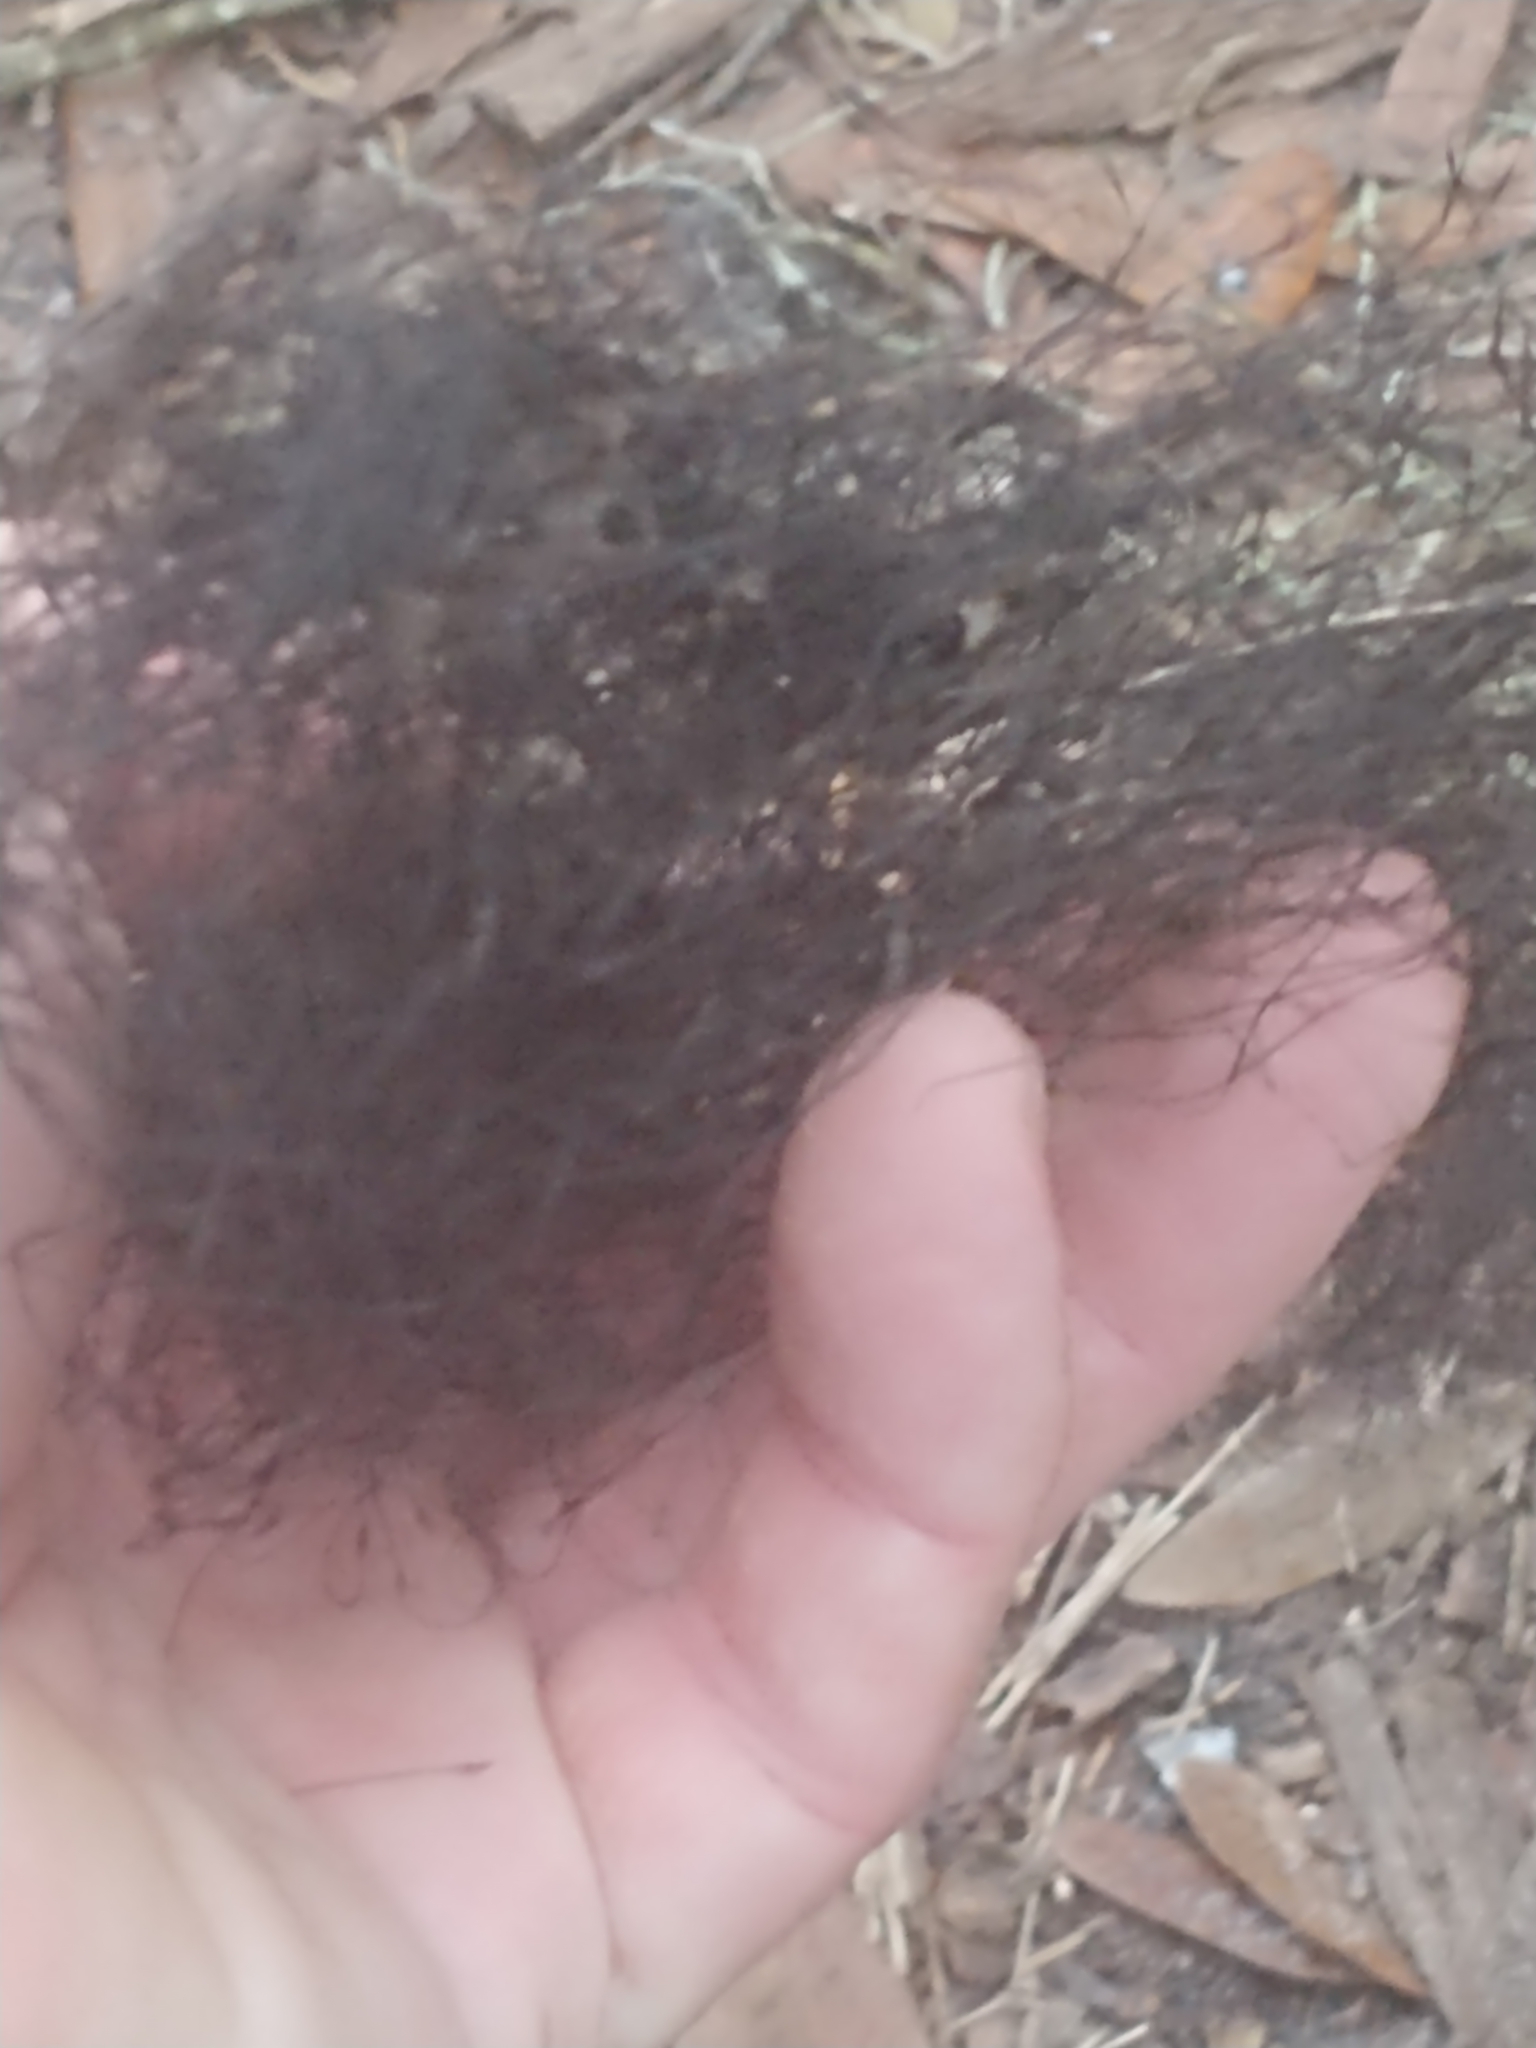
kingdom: Plantae
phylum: Tracheophyta
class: Liliopsida
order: Poales
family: Bromeliaceae
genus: Tillandsia
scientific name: Tillandsia usneoides
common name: Spanish moss
